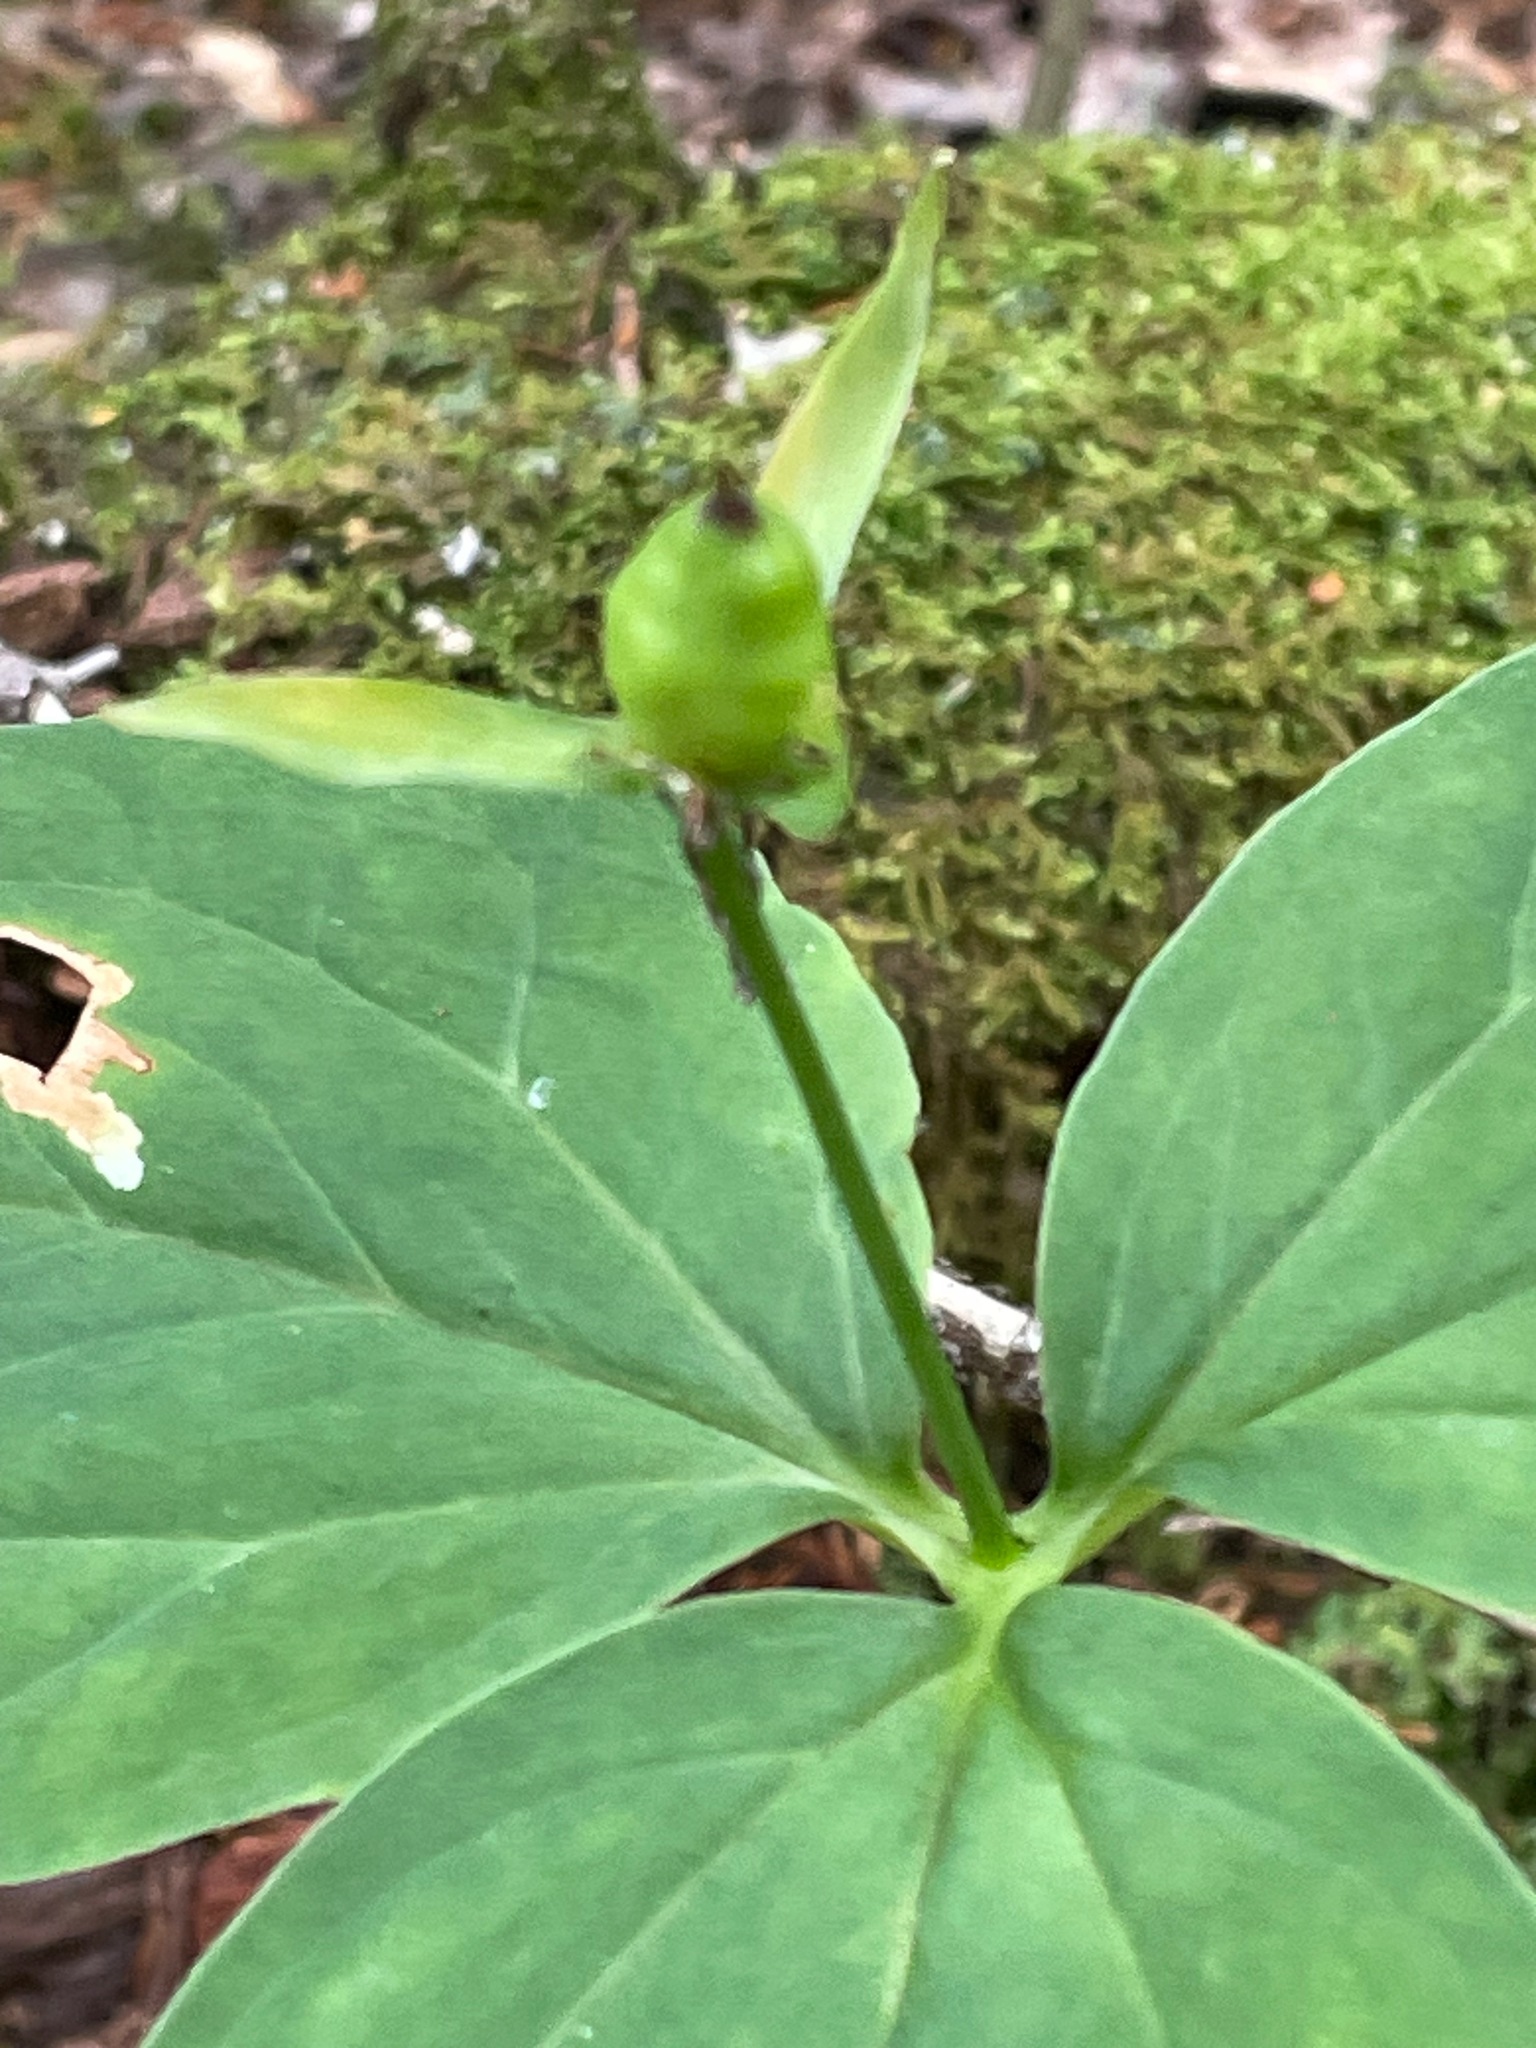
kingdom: Plantae
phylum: Tracheophyta
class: Liliopsida
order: Liliales
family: Melanthiaceae
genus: Trillium
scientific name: Trillium undulatum
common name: Paint trillium
